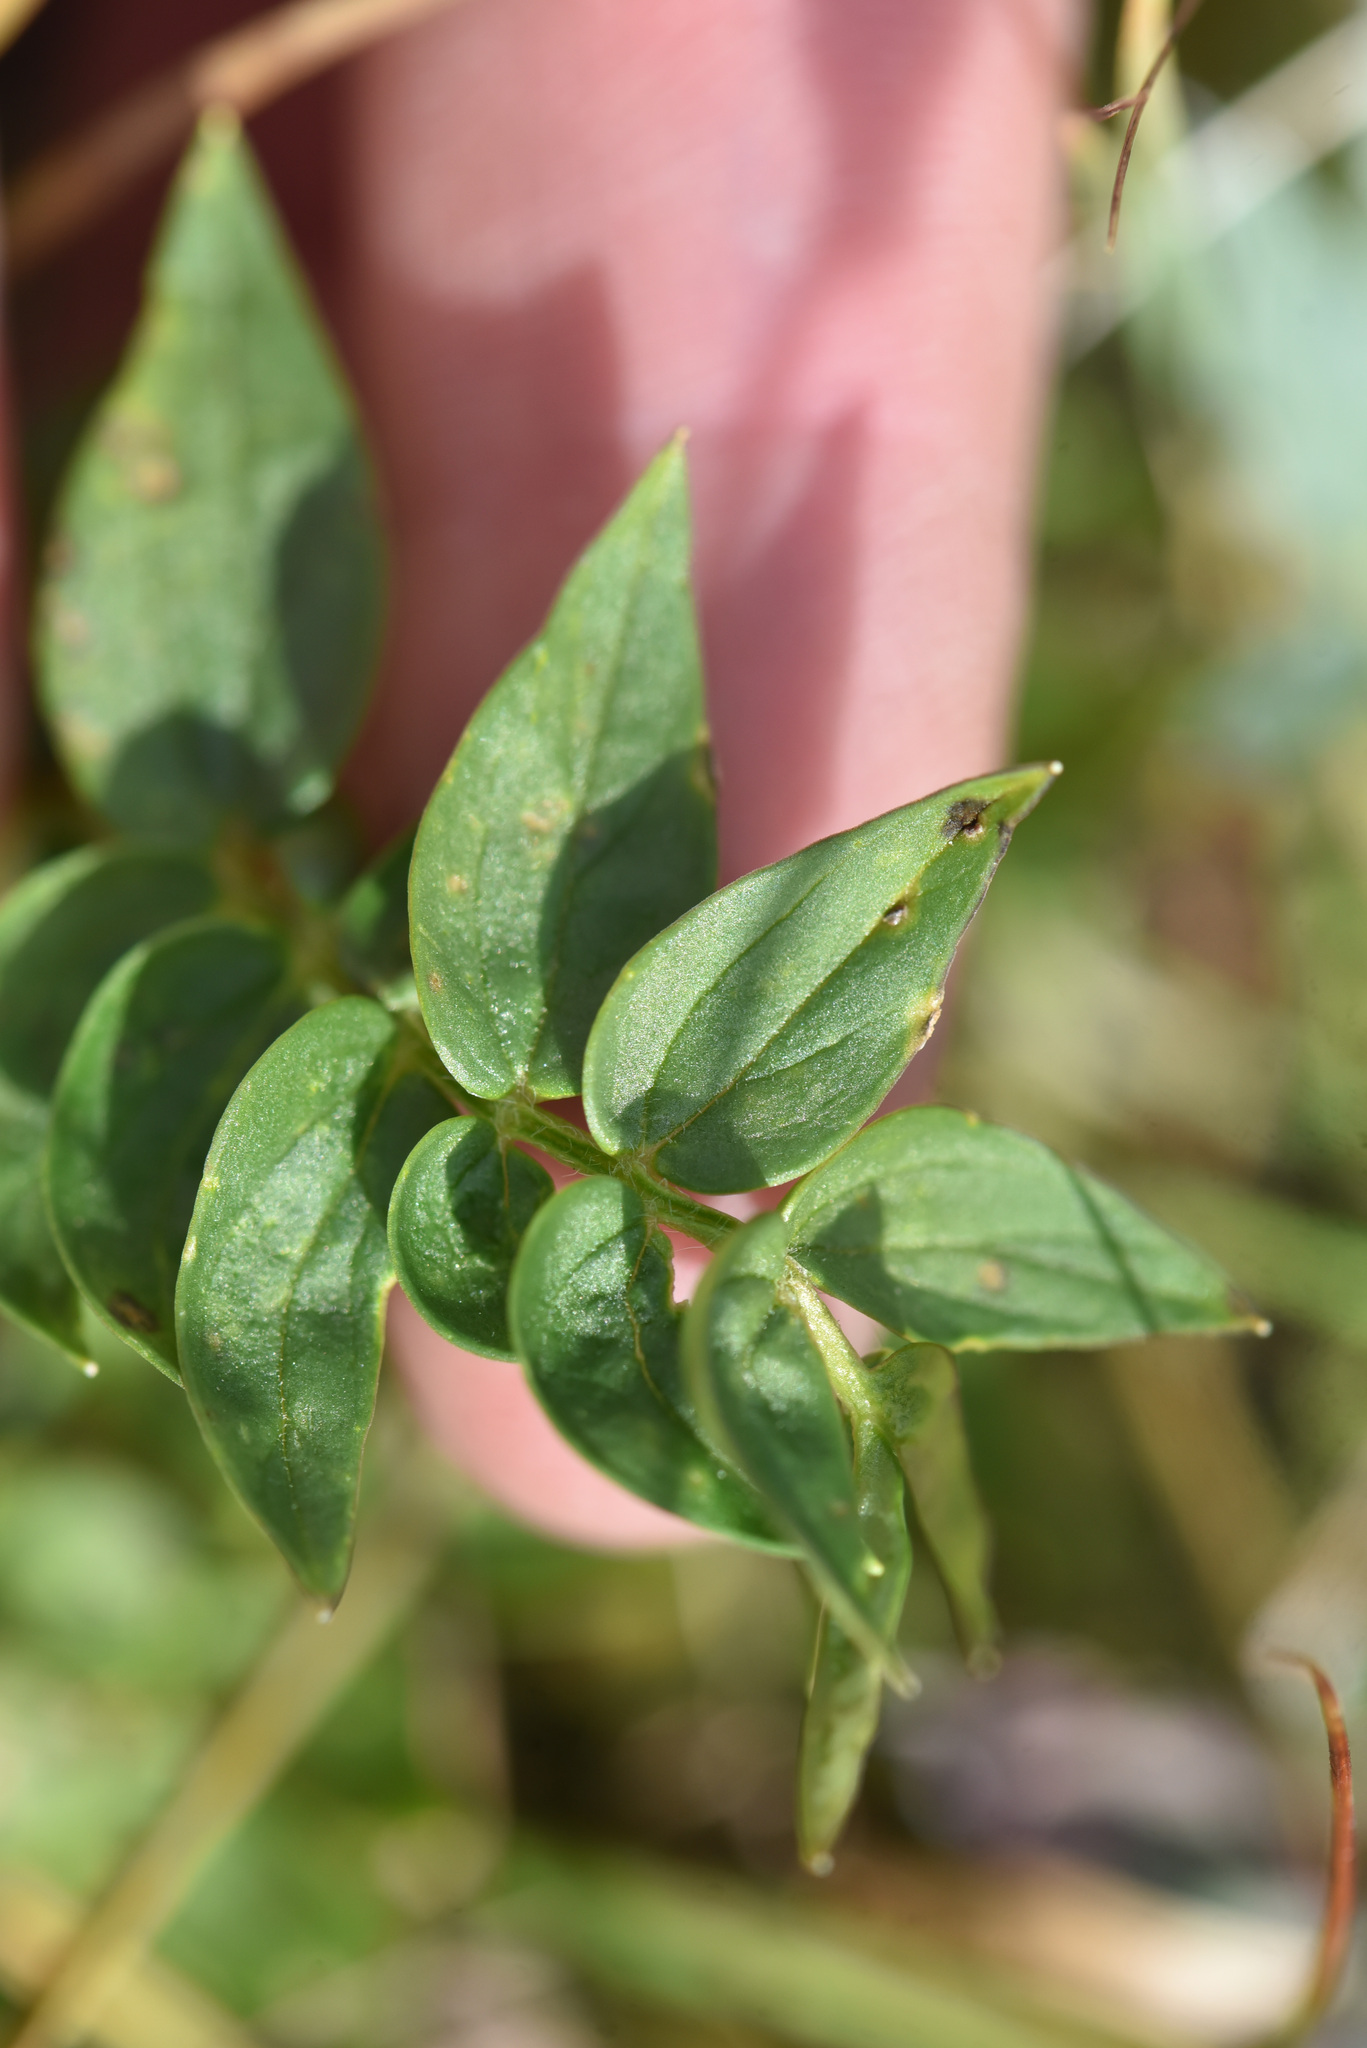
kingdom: Plantae
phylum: Tracheophyta
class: Magnoliopsida
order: Ericales
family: Polemoniaceae
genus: Polemonium
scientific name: Polemonium acutiflorum
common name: Tall jacob's-ladder
